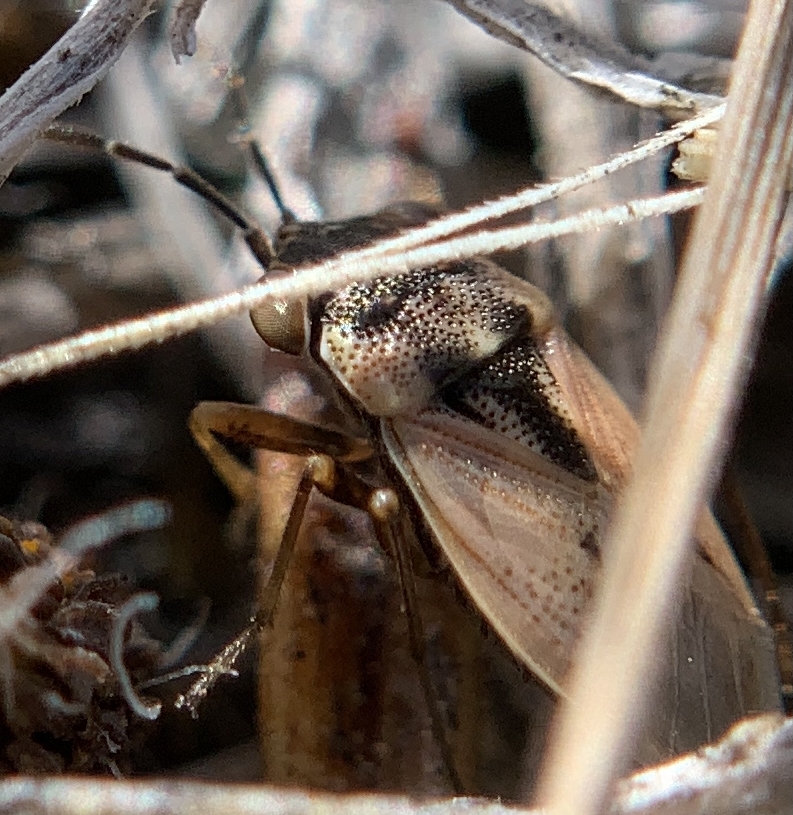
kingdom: Animalia
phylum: Arthropoda
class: Insecta
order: Hemiptera
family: Geocoridae
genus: Geocoris
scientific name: Geocoris pallens
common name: Big-eyed bug
